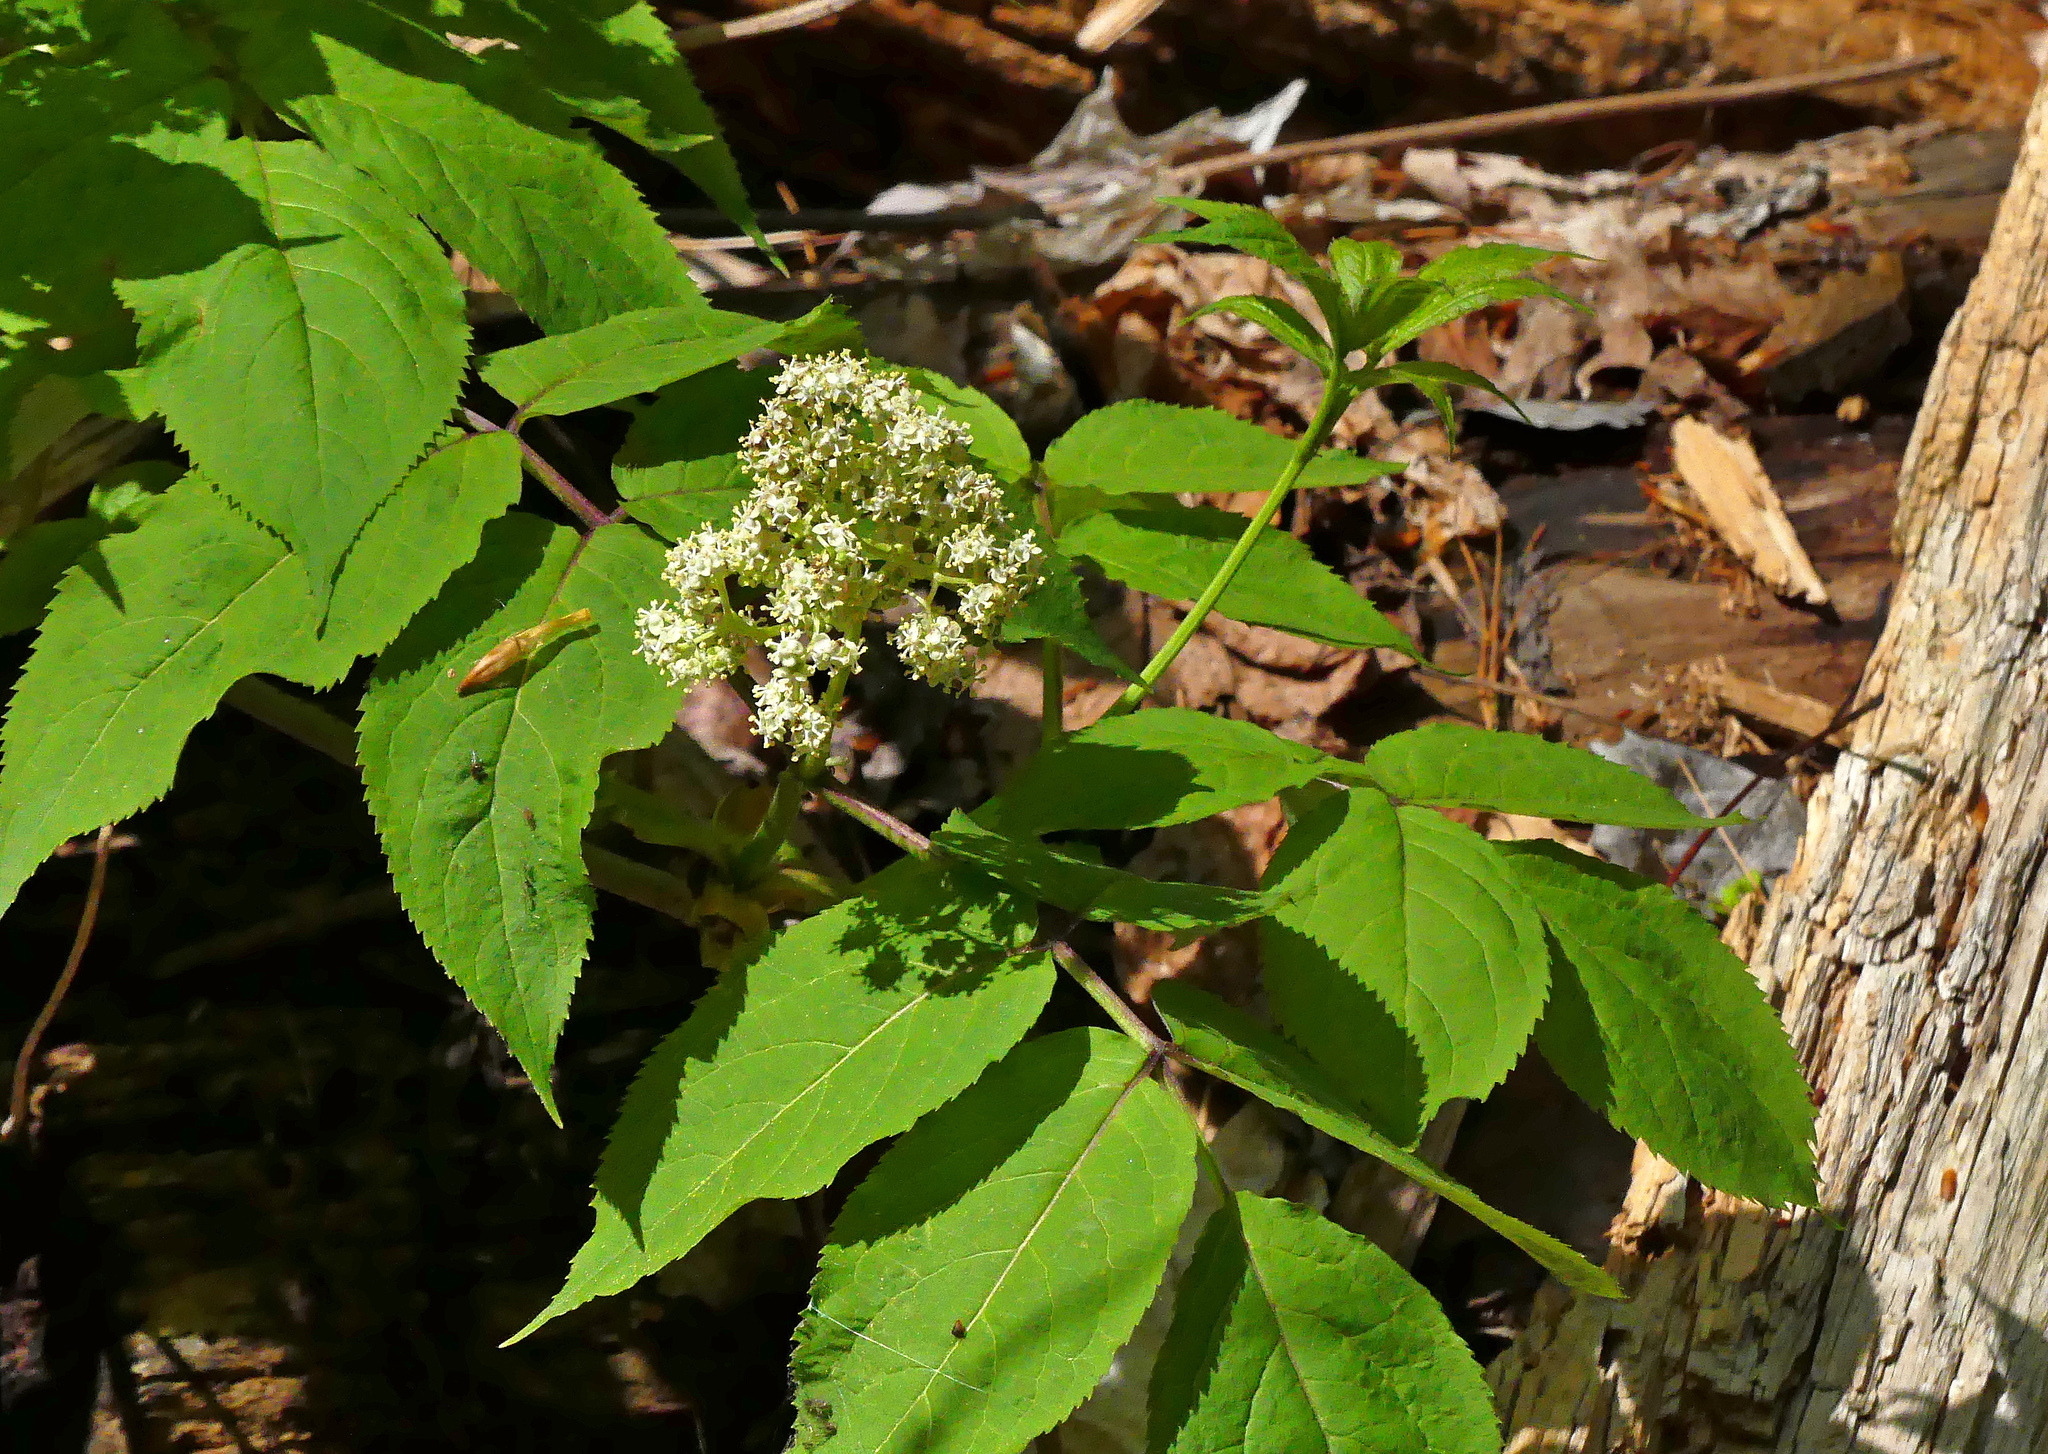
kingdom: Plantae
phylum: Tracheophyta
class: Magnoliopsida
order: Dipsacales
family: Viburnaceae
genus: Sambucus
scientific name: Sambucus racemosa
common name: Red-berried elder
